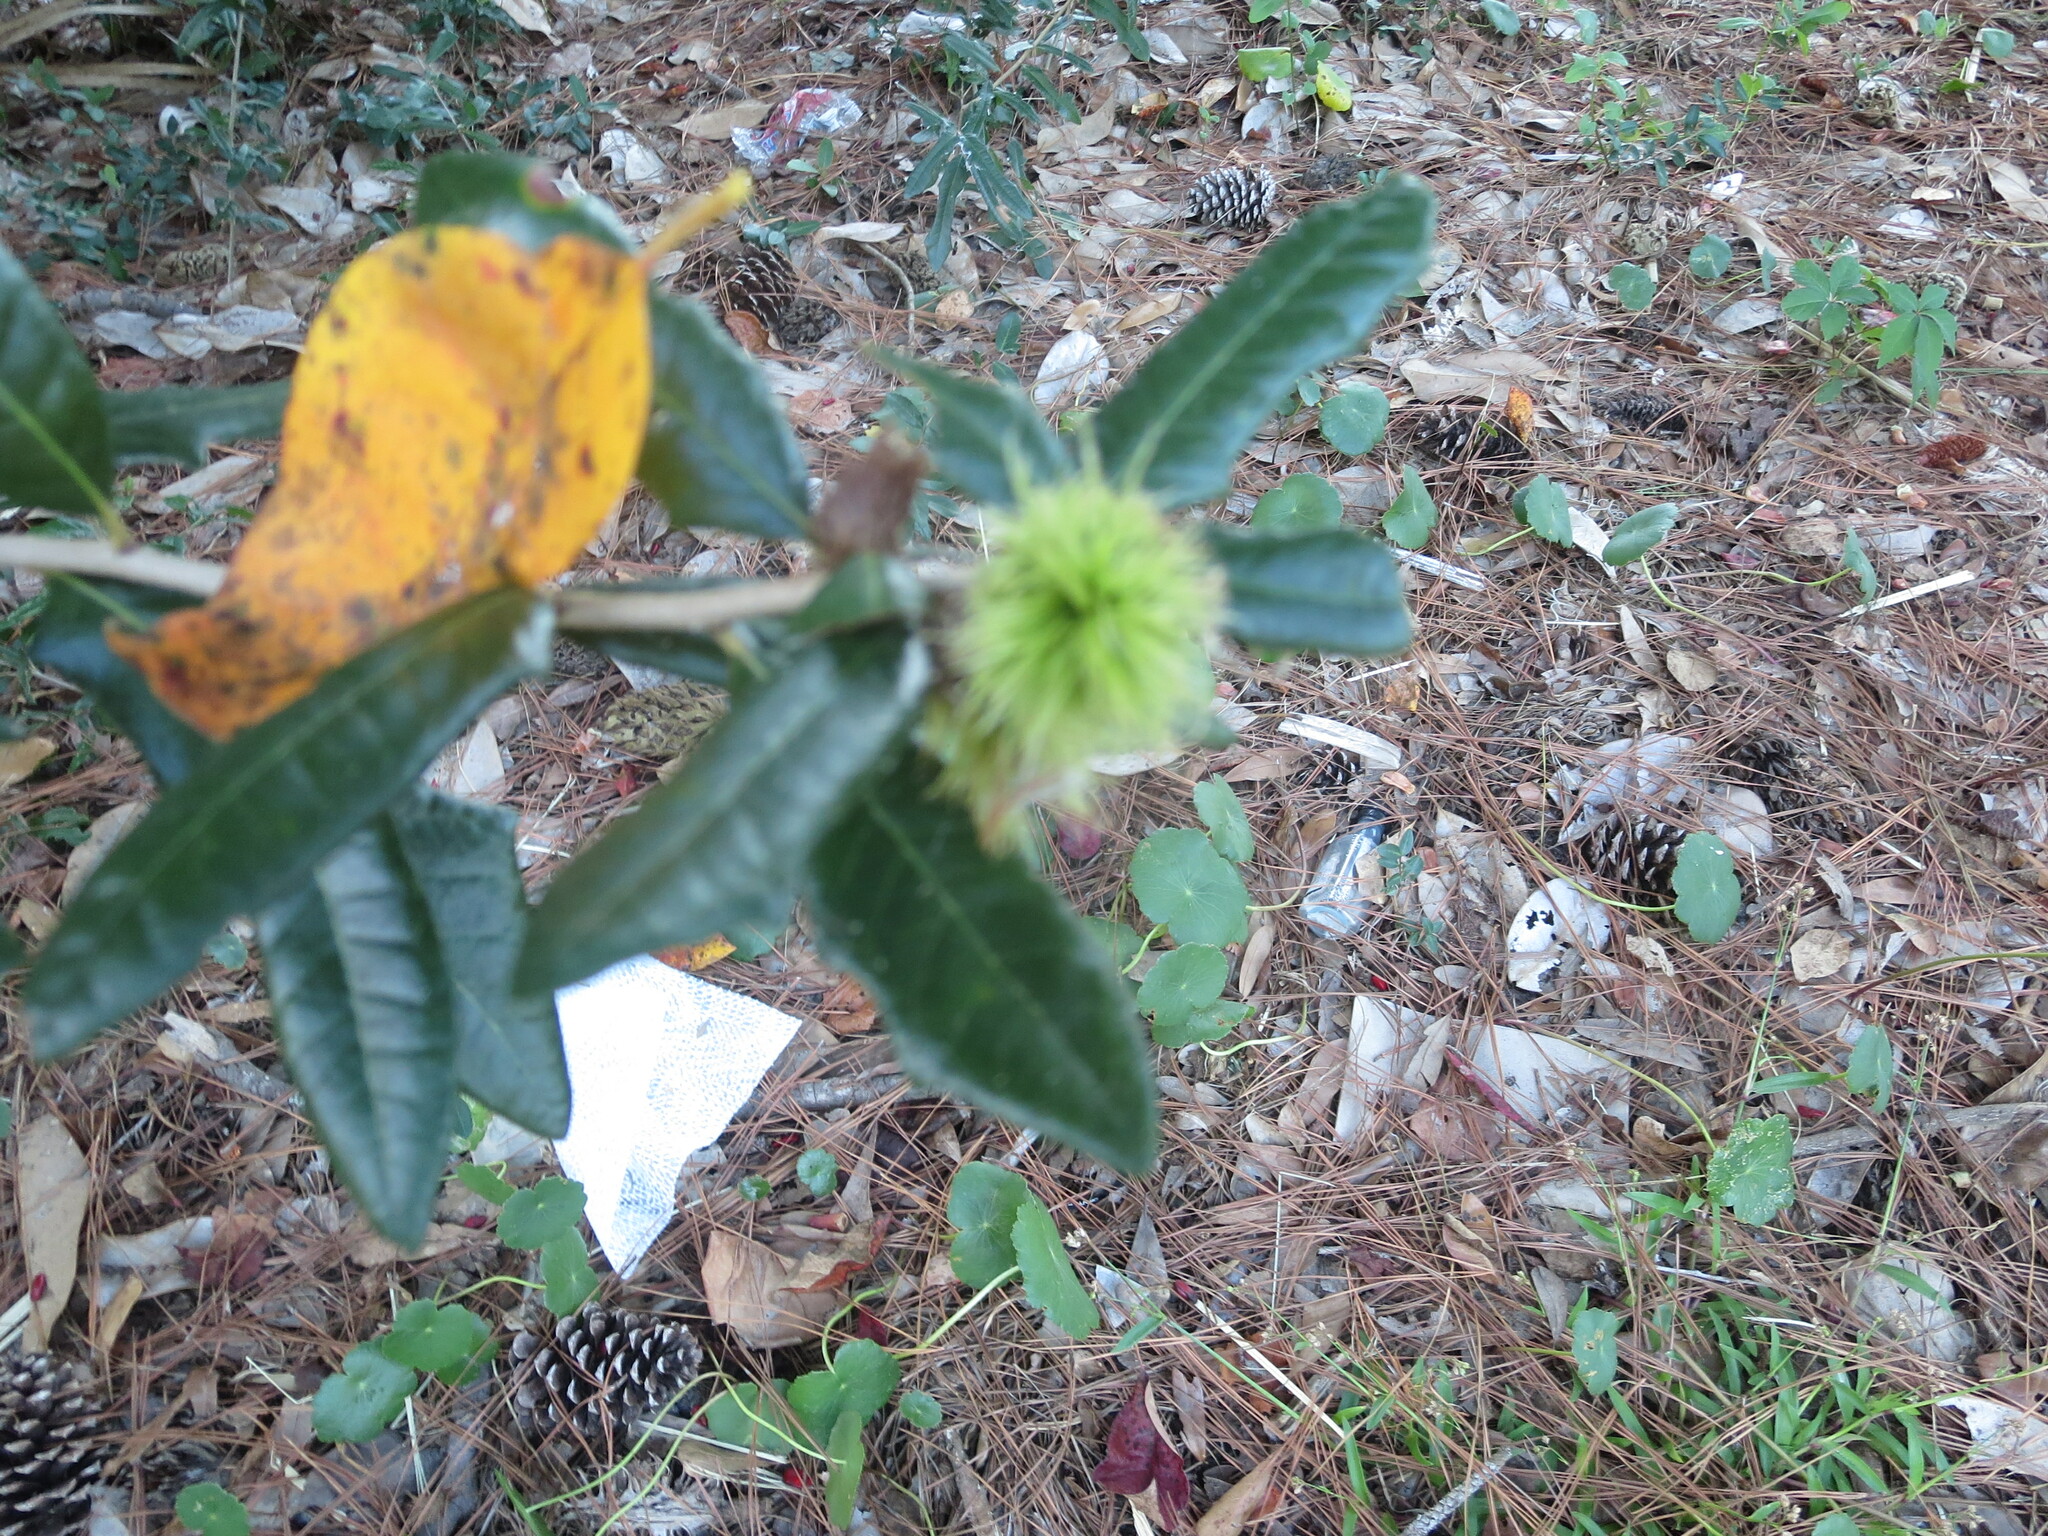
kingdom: Animalia
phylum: Arthropoda
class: Insecta
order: Hymenoptera
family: Cynipidae
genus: Andricus
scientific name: Andricus quercusfoliatus
